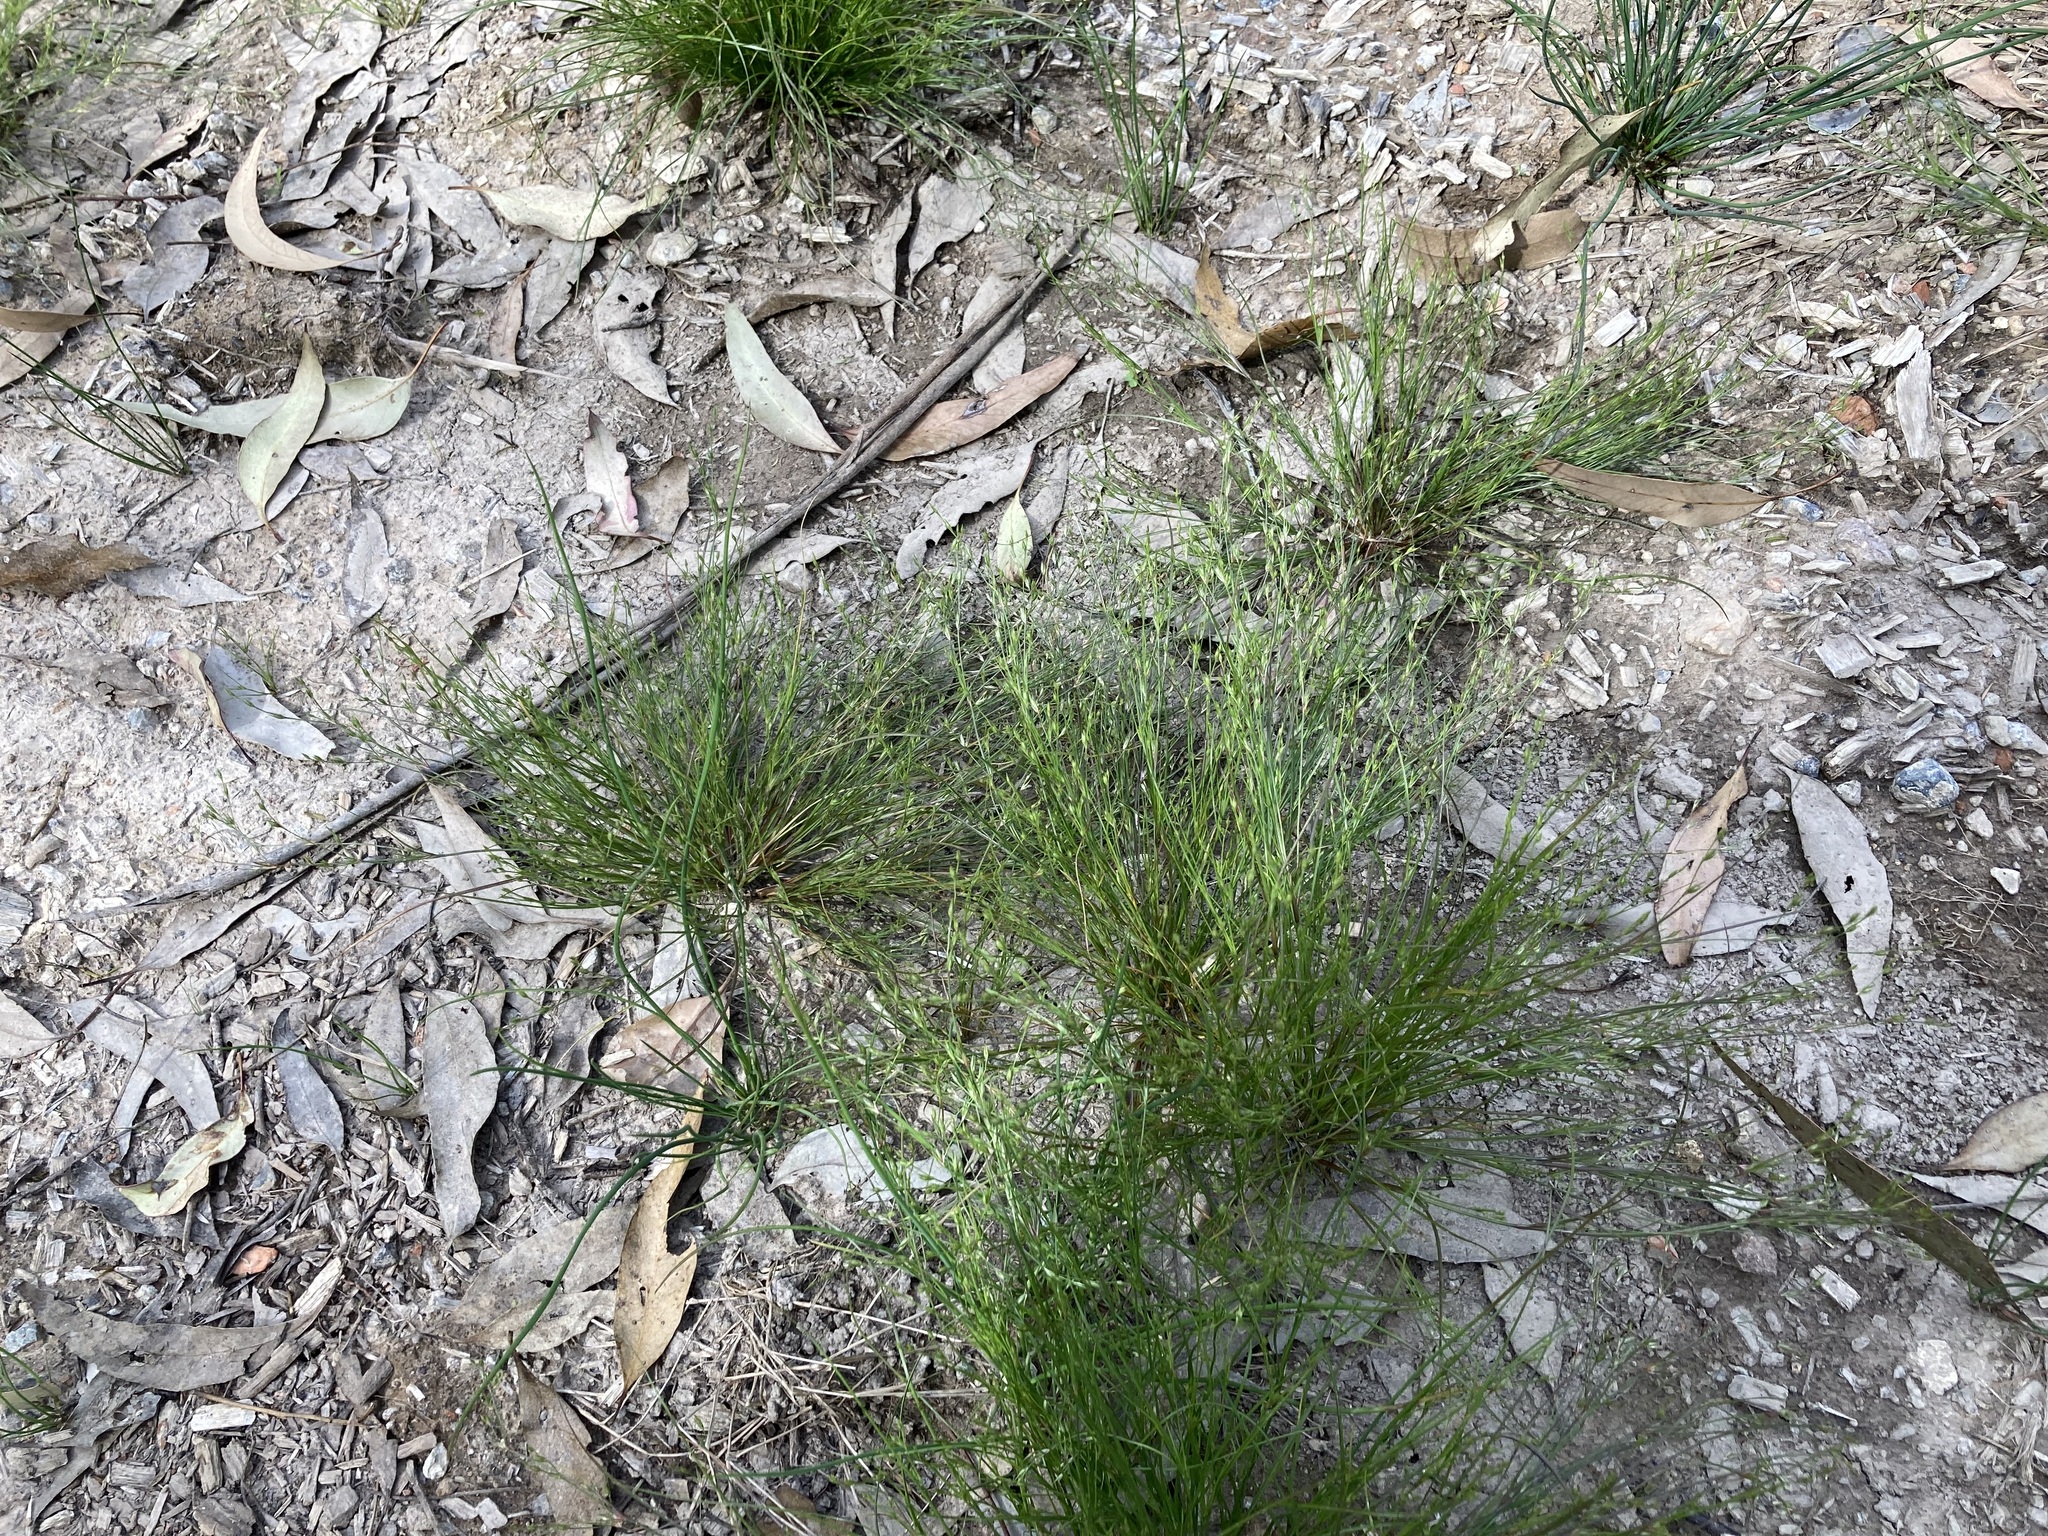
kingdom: Plantae
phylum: Tracheophyta
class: Liliopsida
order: Poales
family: Juncaceae
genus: Juncus
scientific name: Juncus bufonius
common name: Toad rush
